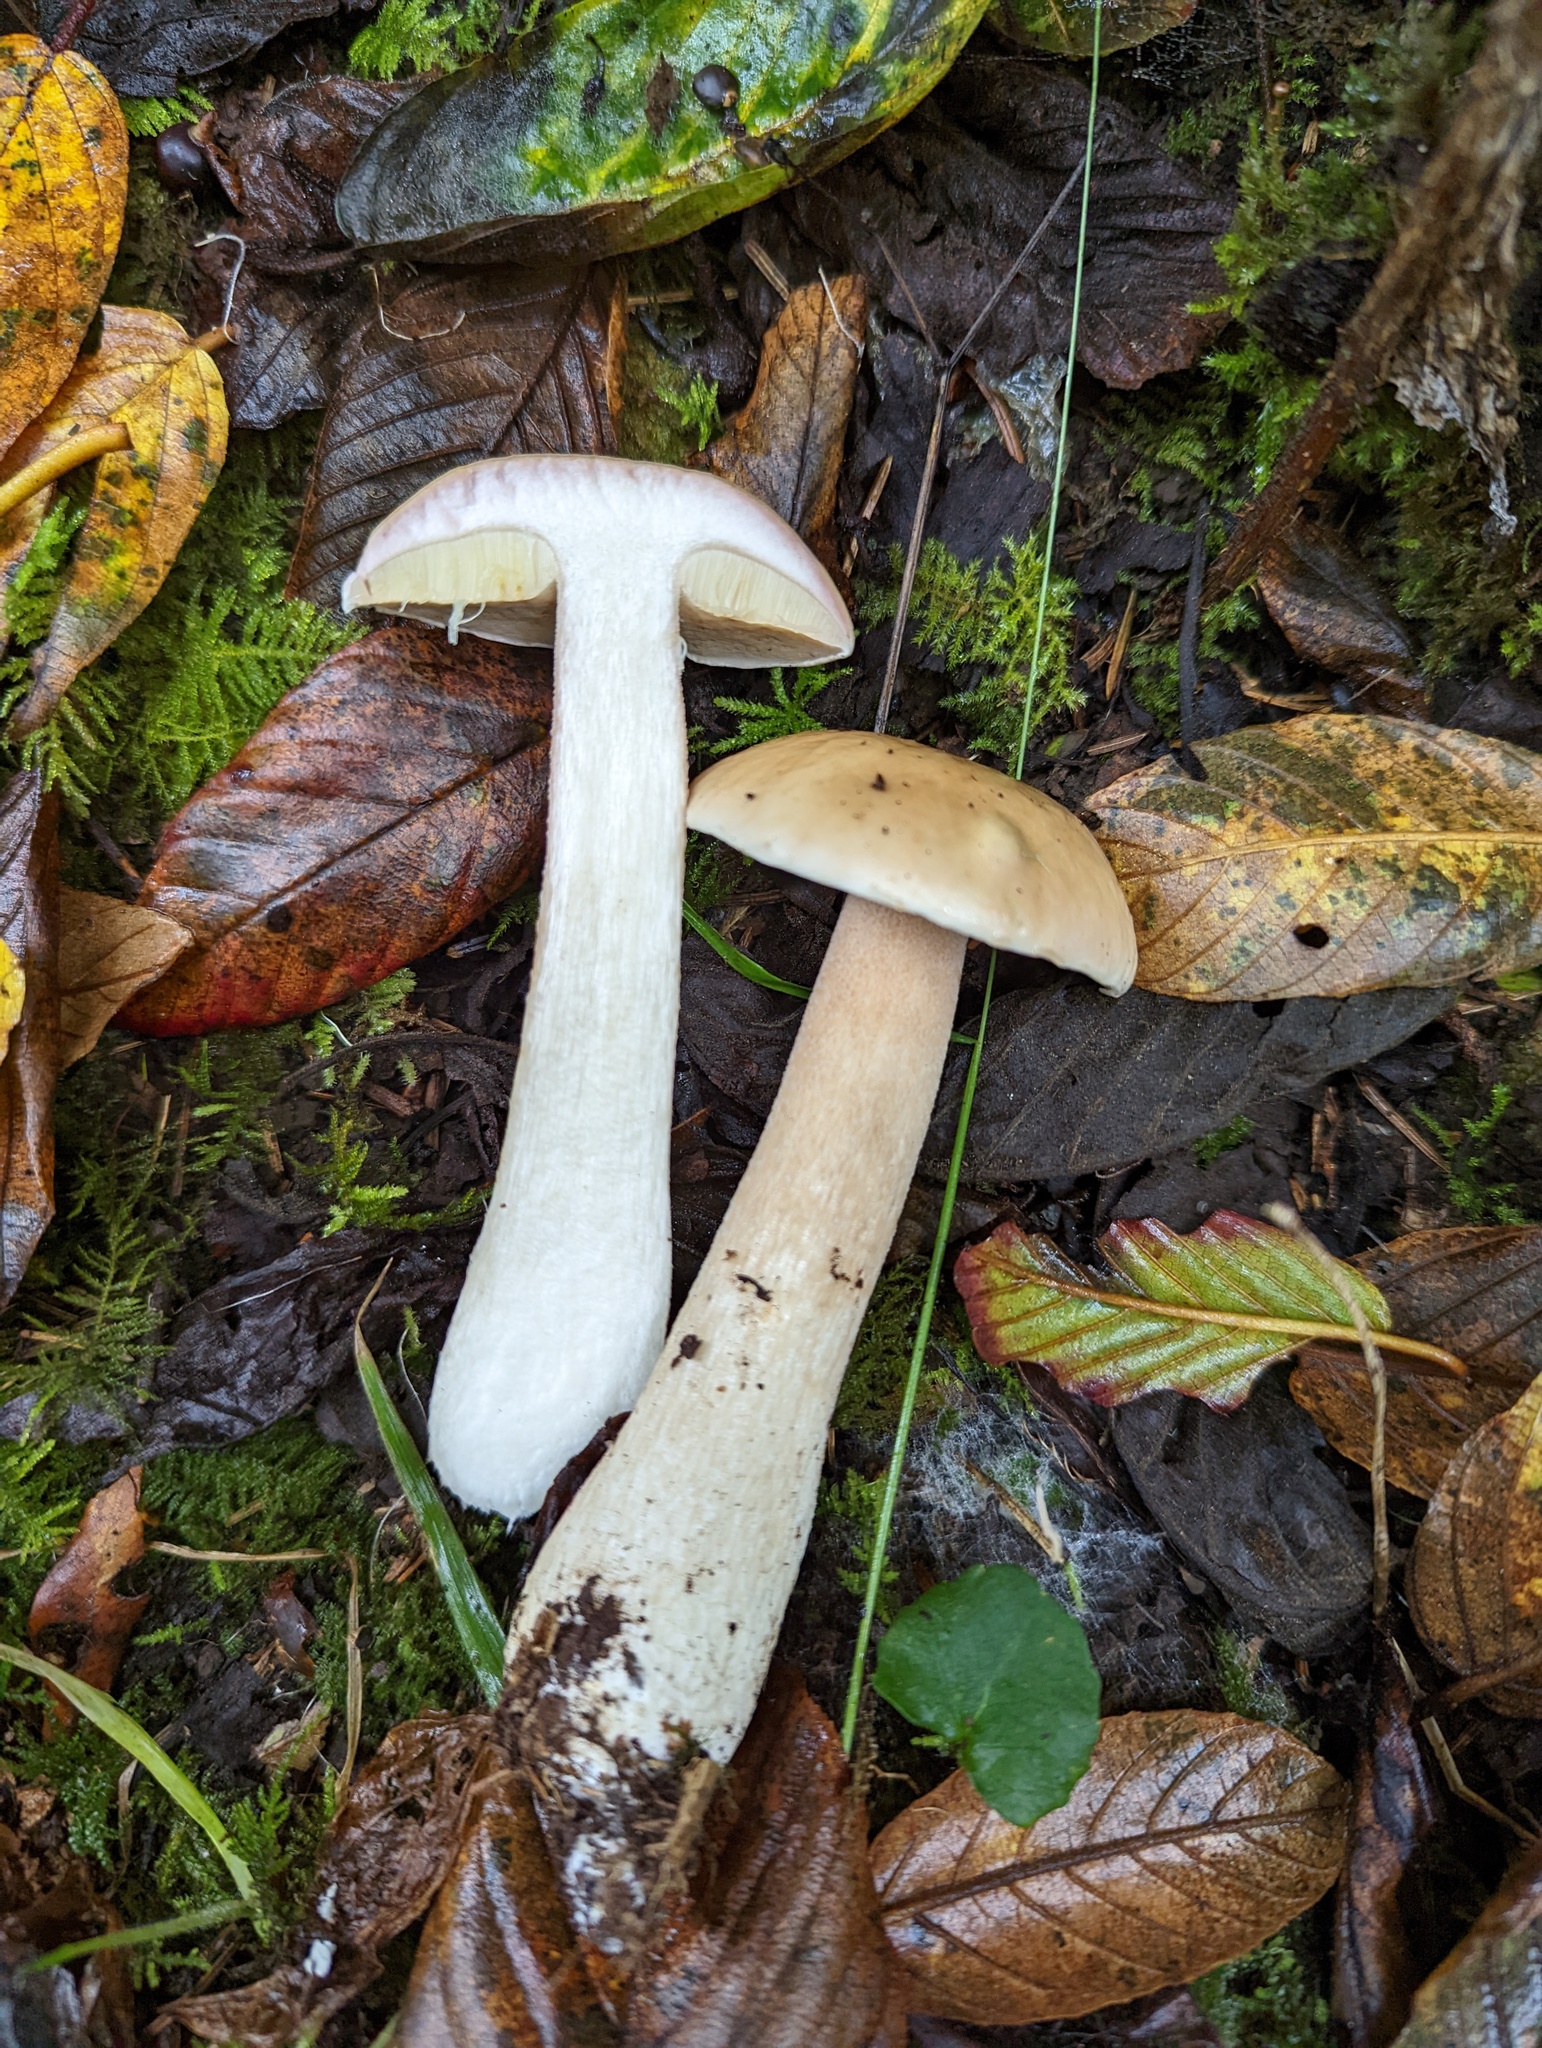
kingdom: Fungi
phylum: Basidiomycota
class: Agaricomycetes
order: Boletales
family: Boletaceae
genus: Boletus
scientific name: Boletus edulis
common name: Cep
